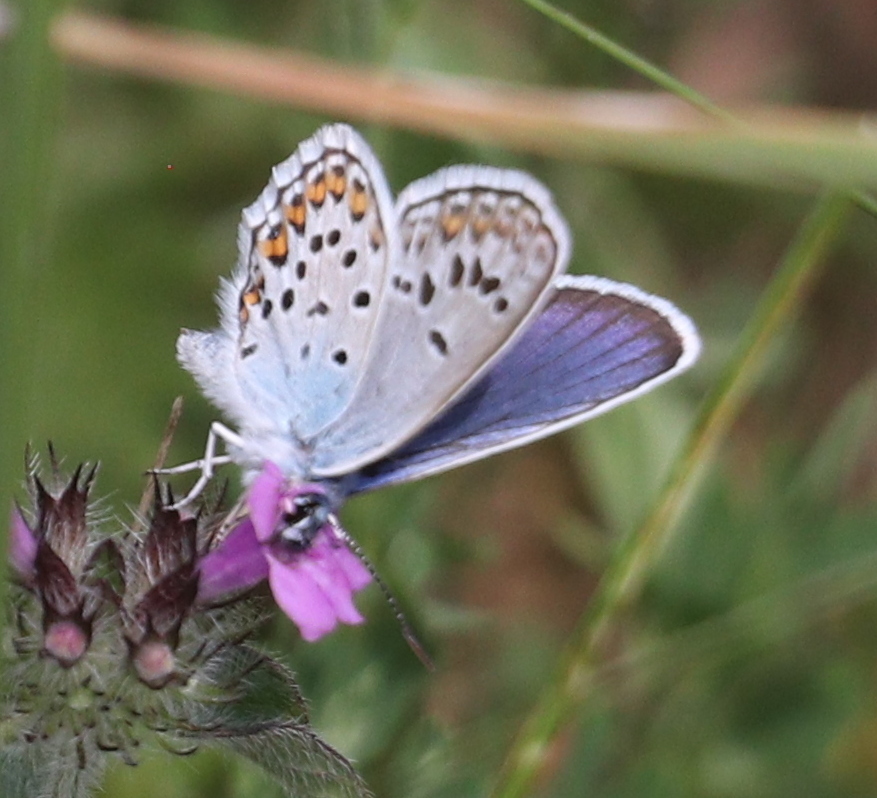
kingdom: Animalia
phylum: Arthropoda
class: Insecta
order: Lepidoptera
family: Lycaenidae
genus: Plebejus
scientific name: Plebejus argus
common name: Silver-studded blue
